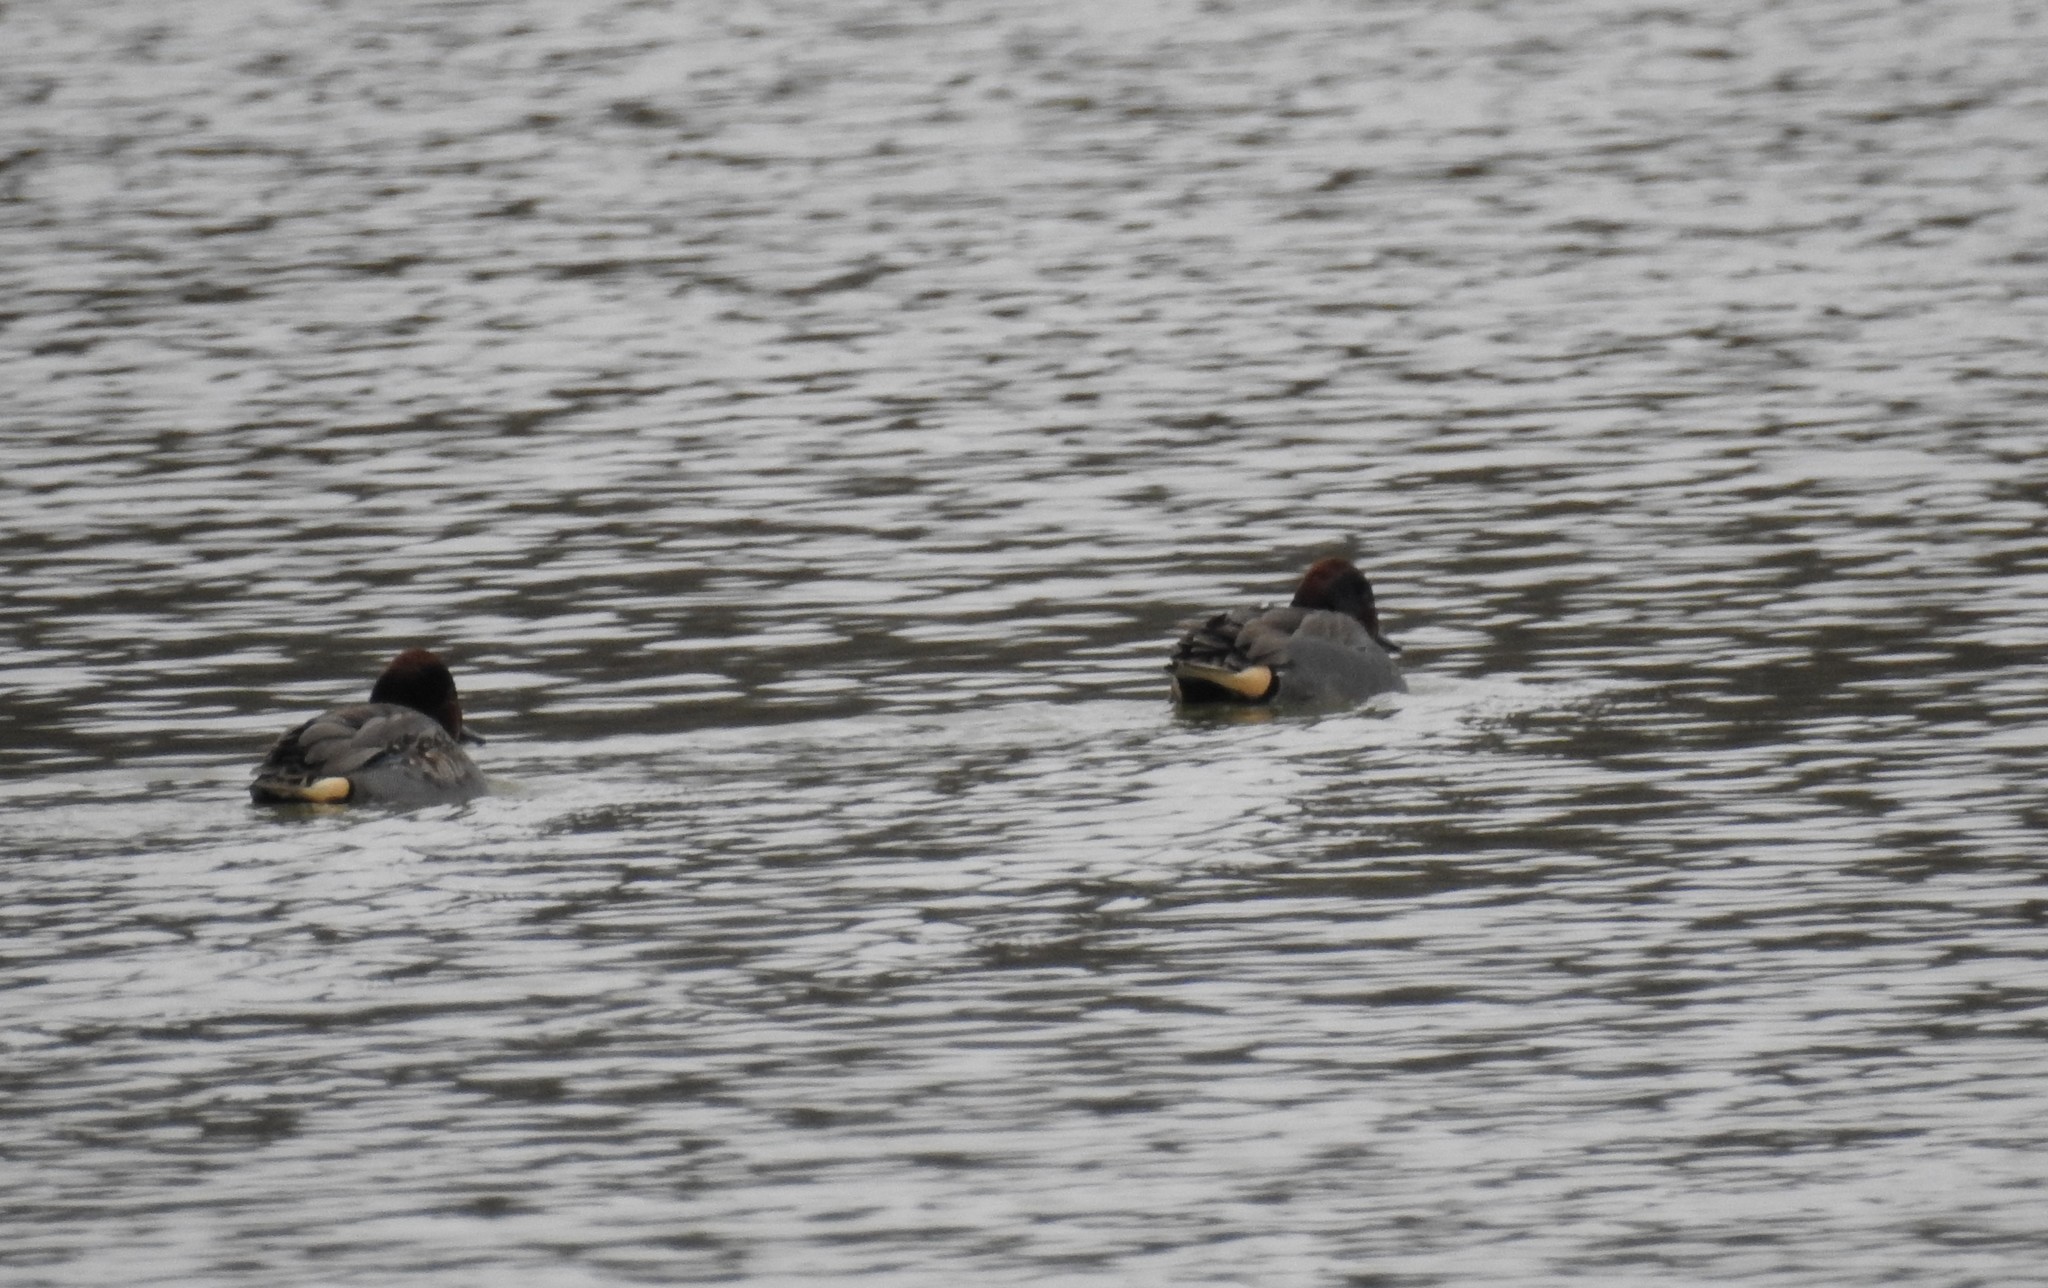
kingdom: Animalia
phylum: Chordata
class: Aves
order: Anseriformes
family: Anatidae
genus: Anas
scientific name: Anas crecca
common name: Eurasian teal
